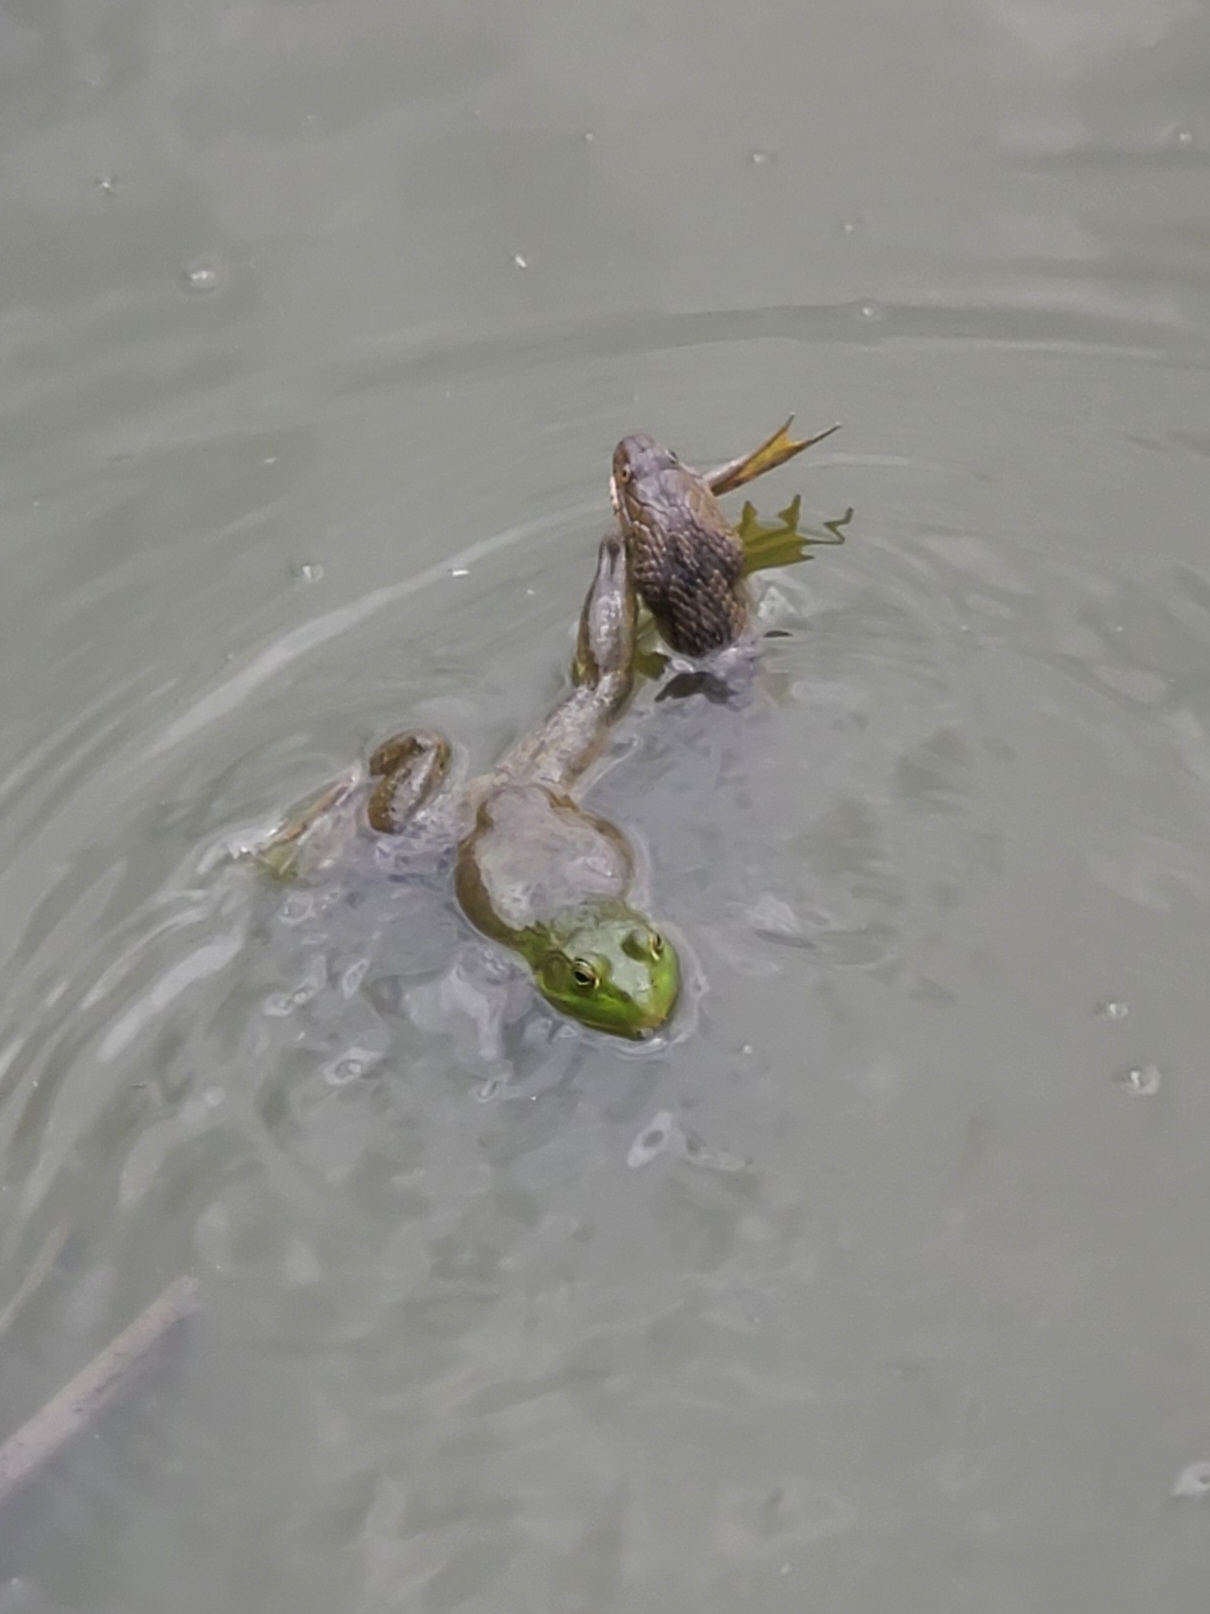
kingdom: Animalia
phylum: Chordata
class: Squamata
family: Colubridae
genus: Nerodia
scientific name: Nerodia rhombifer
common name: Diamondback water snake
